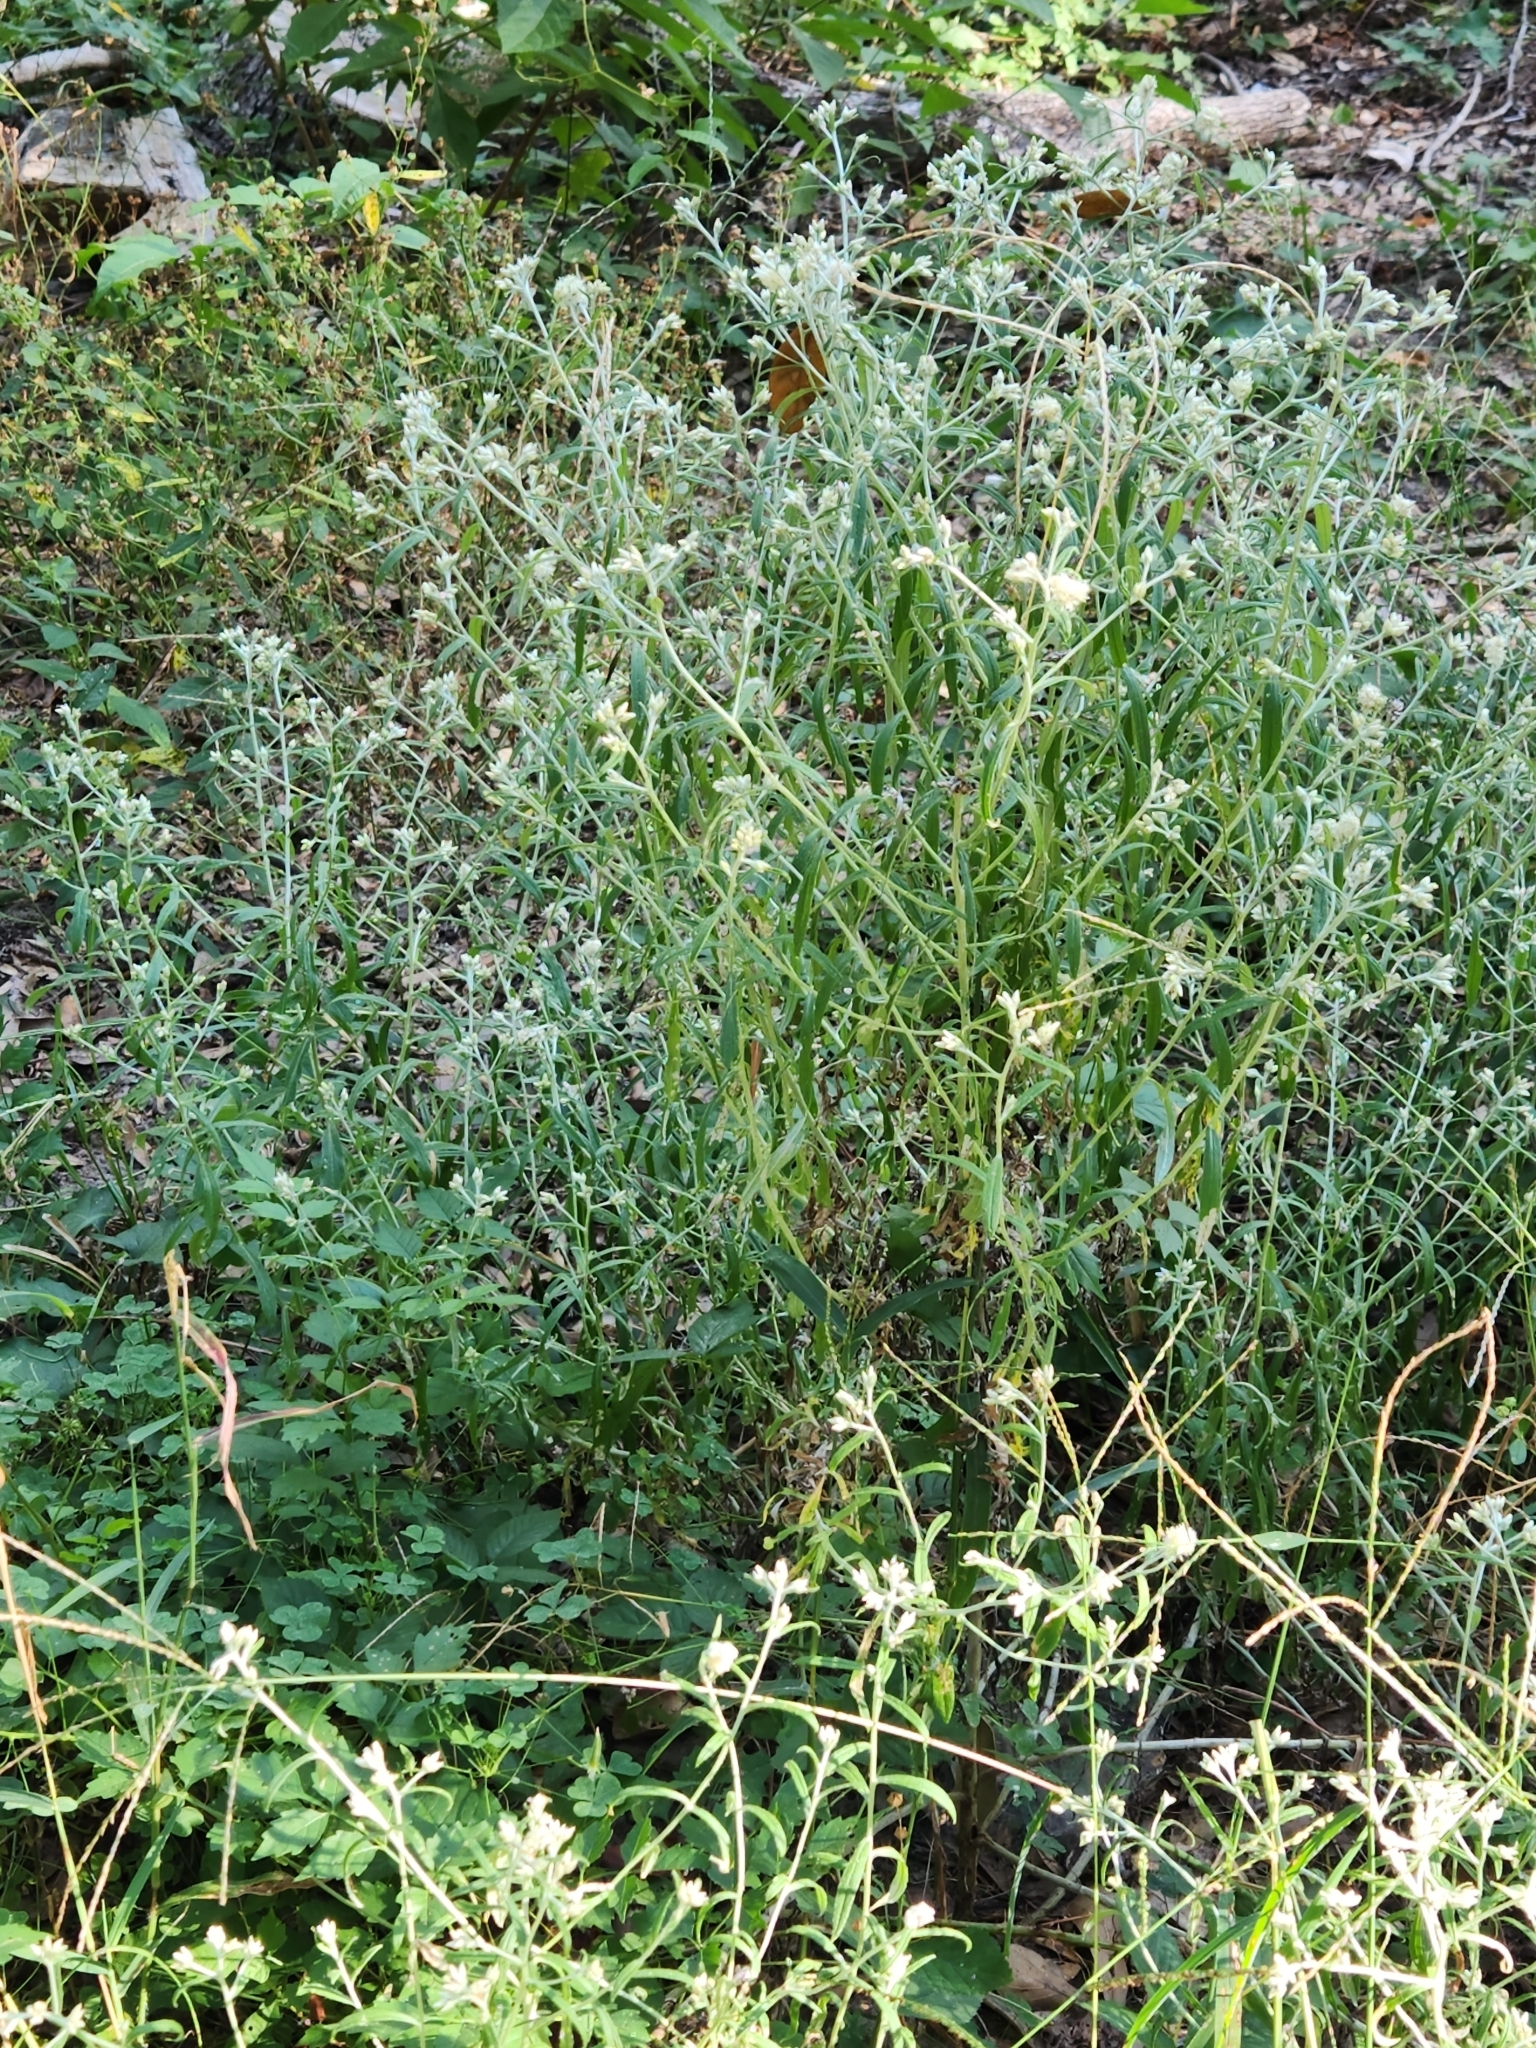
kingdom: Plantae
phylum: Tracheophyta
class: Magnoliopsida
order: Asterales
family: Asteraceae
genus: Pseudognaphalium
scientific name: Pseudognaphalium obtusifolium
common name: Eastern rabbit-tobacco
